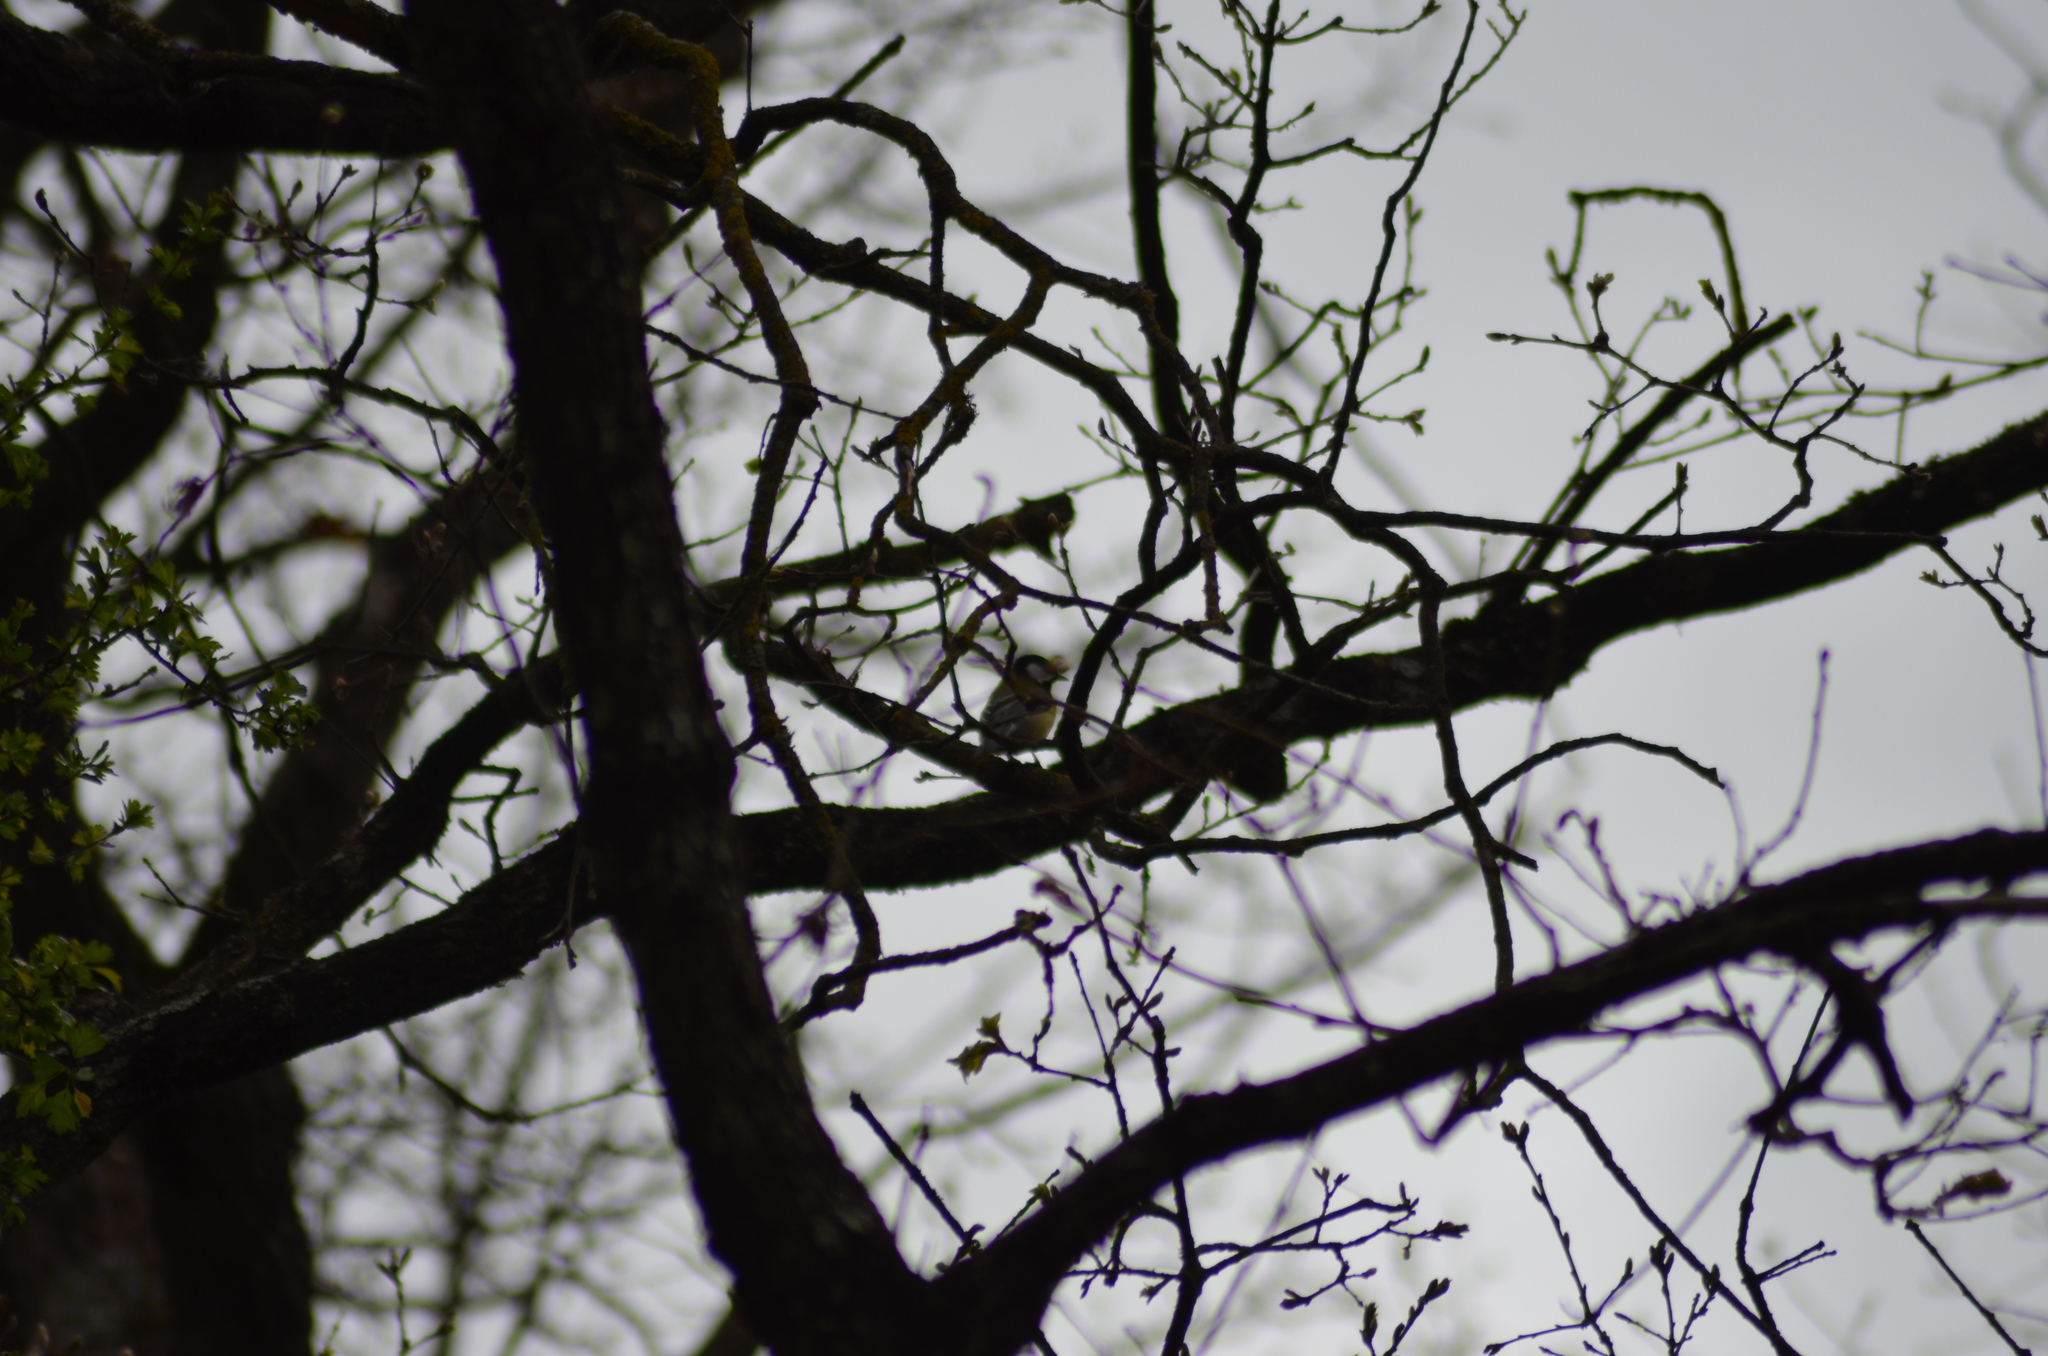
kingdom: Animalia
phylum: Chordata
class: Aves
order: Passeriformes
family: Paridae
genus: Parus
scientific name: Parus major
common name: Great tit
